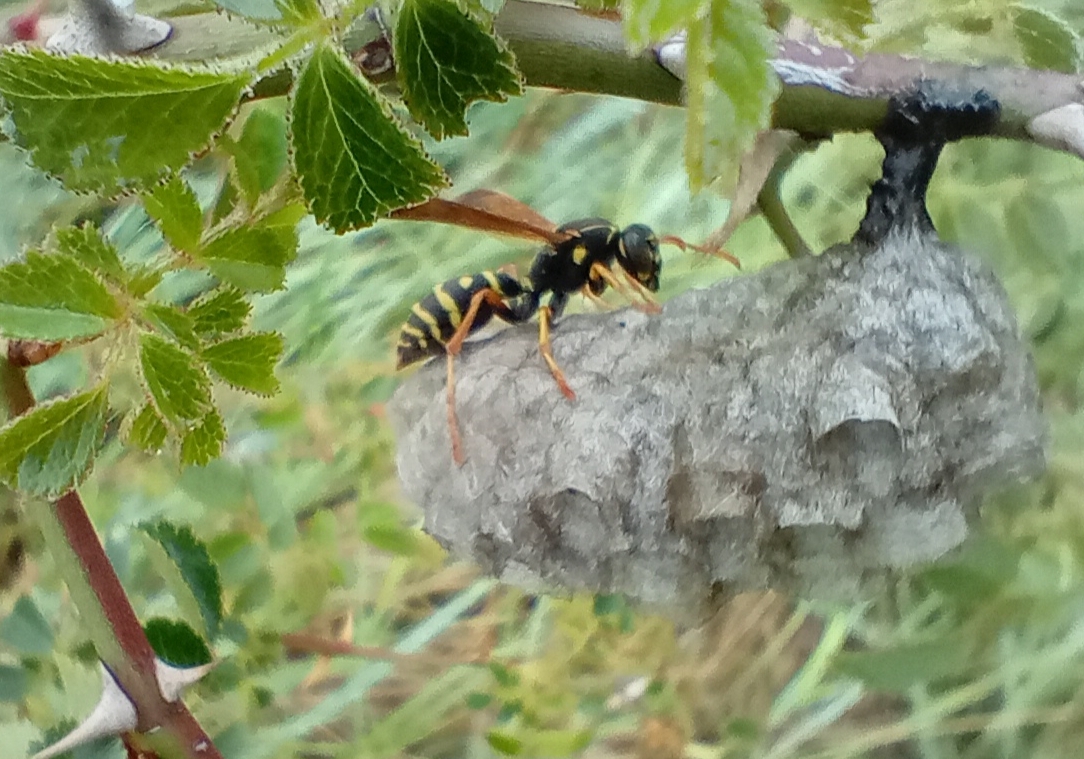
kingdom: Animalia
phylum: Arthropoda
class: Insecta
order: Hymenoptera
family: Eumenidae
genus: Polistes
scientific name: Polistes chinensis
